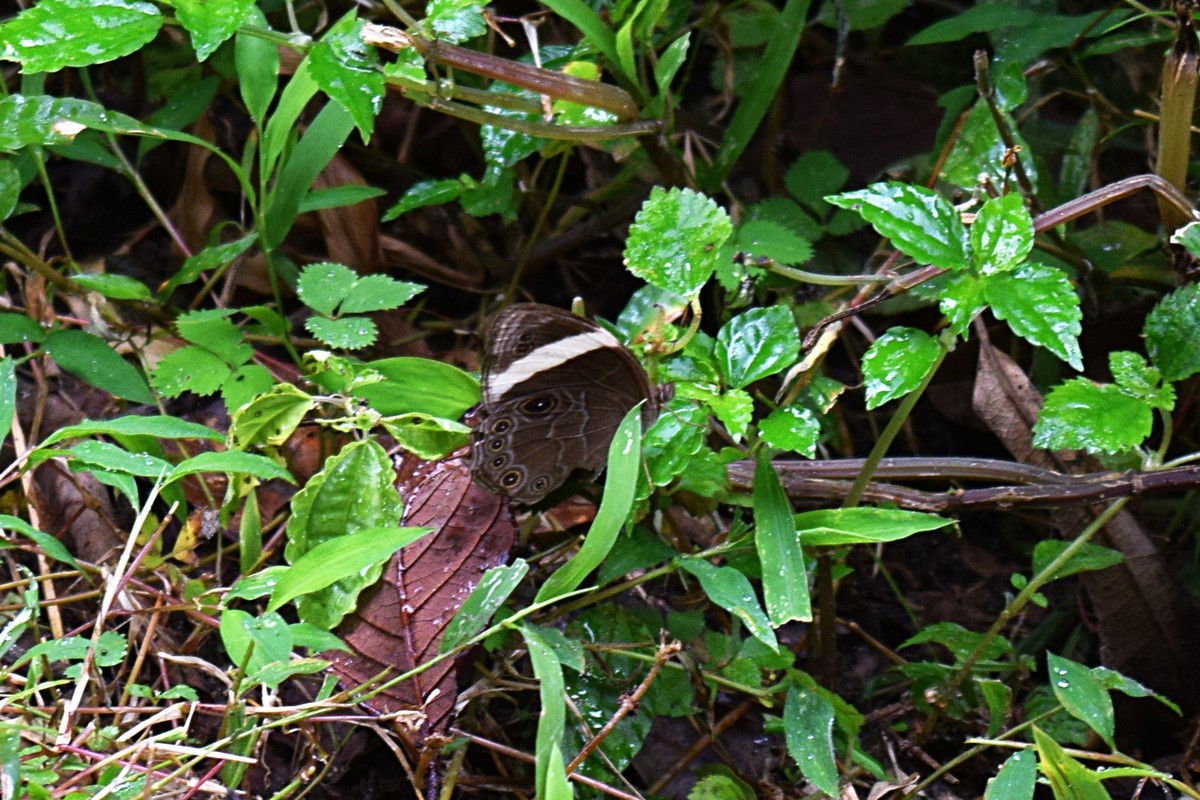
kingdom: Animalia
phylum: Arthropoda
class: Insecta
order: Lepidoptera
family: Nymphalidae
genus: Lethe
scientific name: Lethe verma
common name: Straight-banded treebrown
